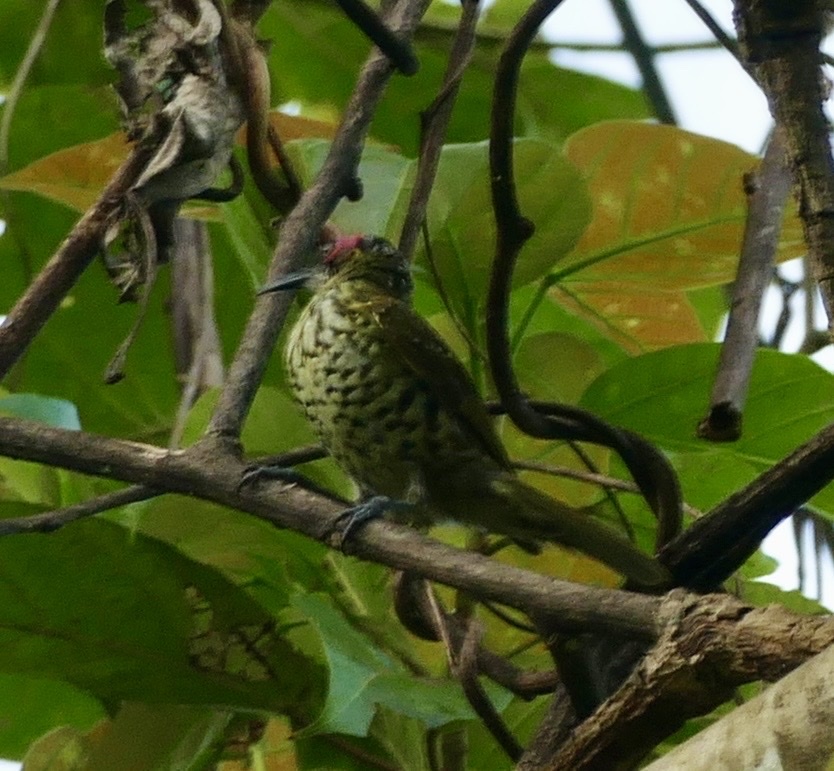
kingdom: Animalia
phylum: Chordata
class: Aves
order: Passeriformes
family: Meliphagidae
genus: Xanthotis
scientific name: Xanthotis polygrammus
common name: Spotted honeyeater
